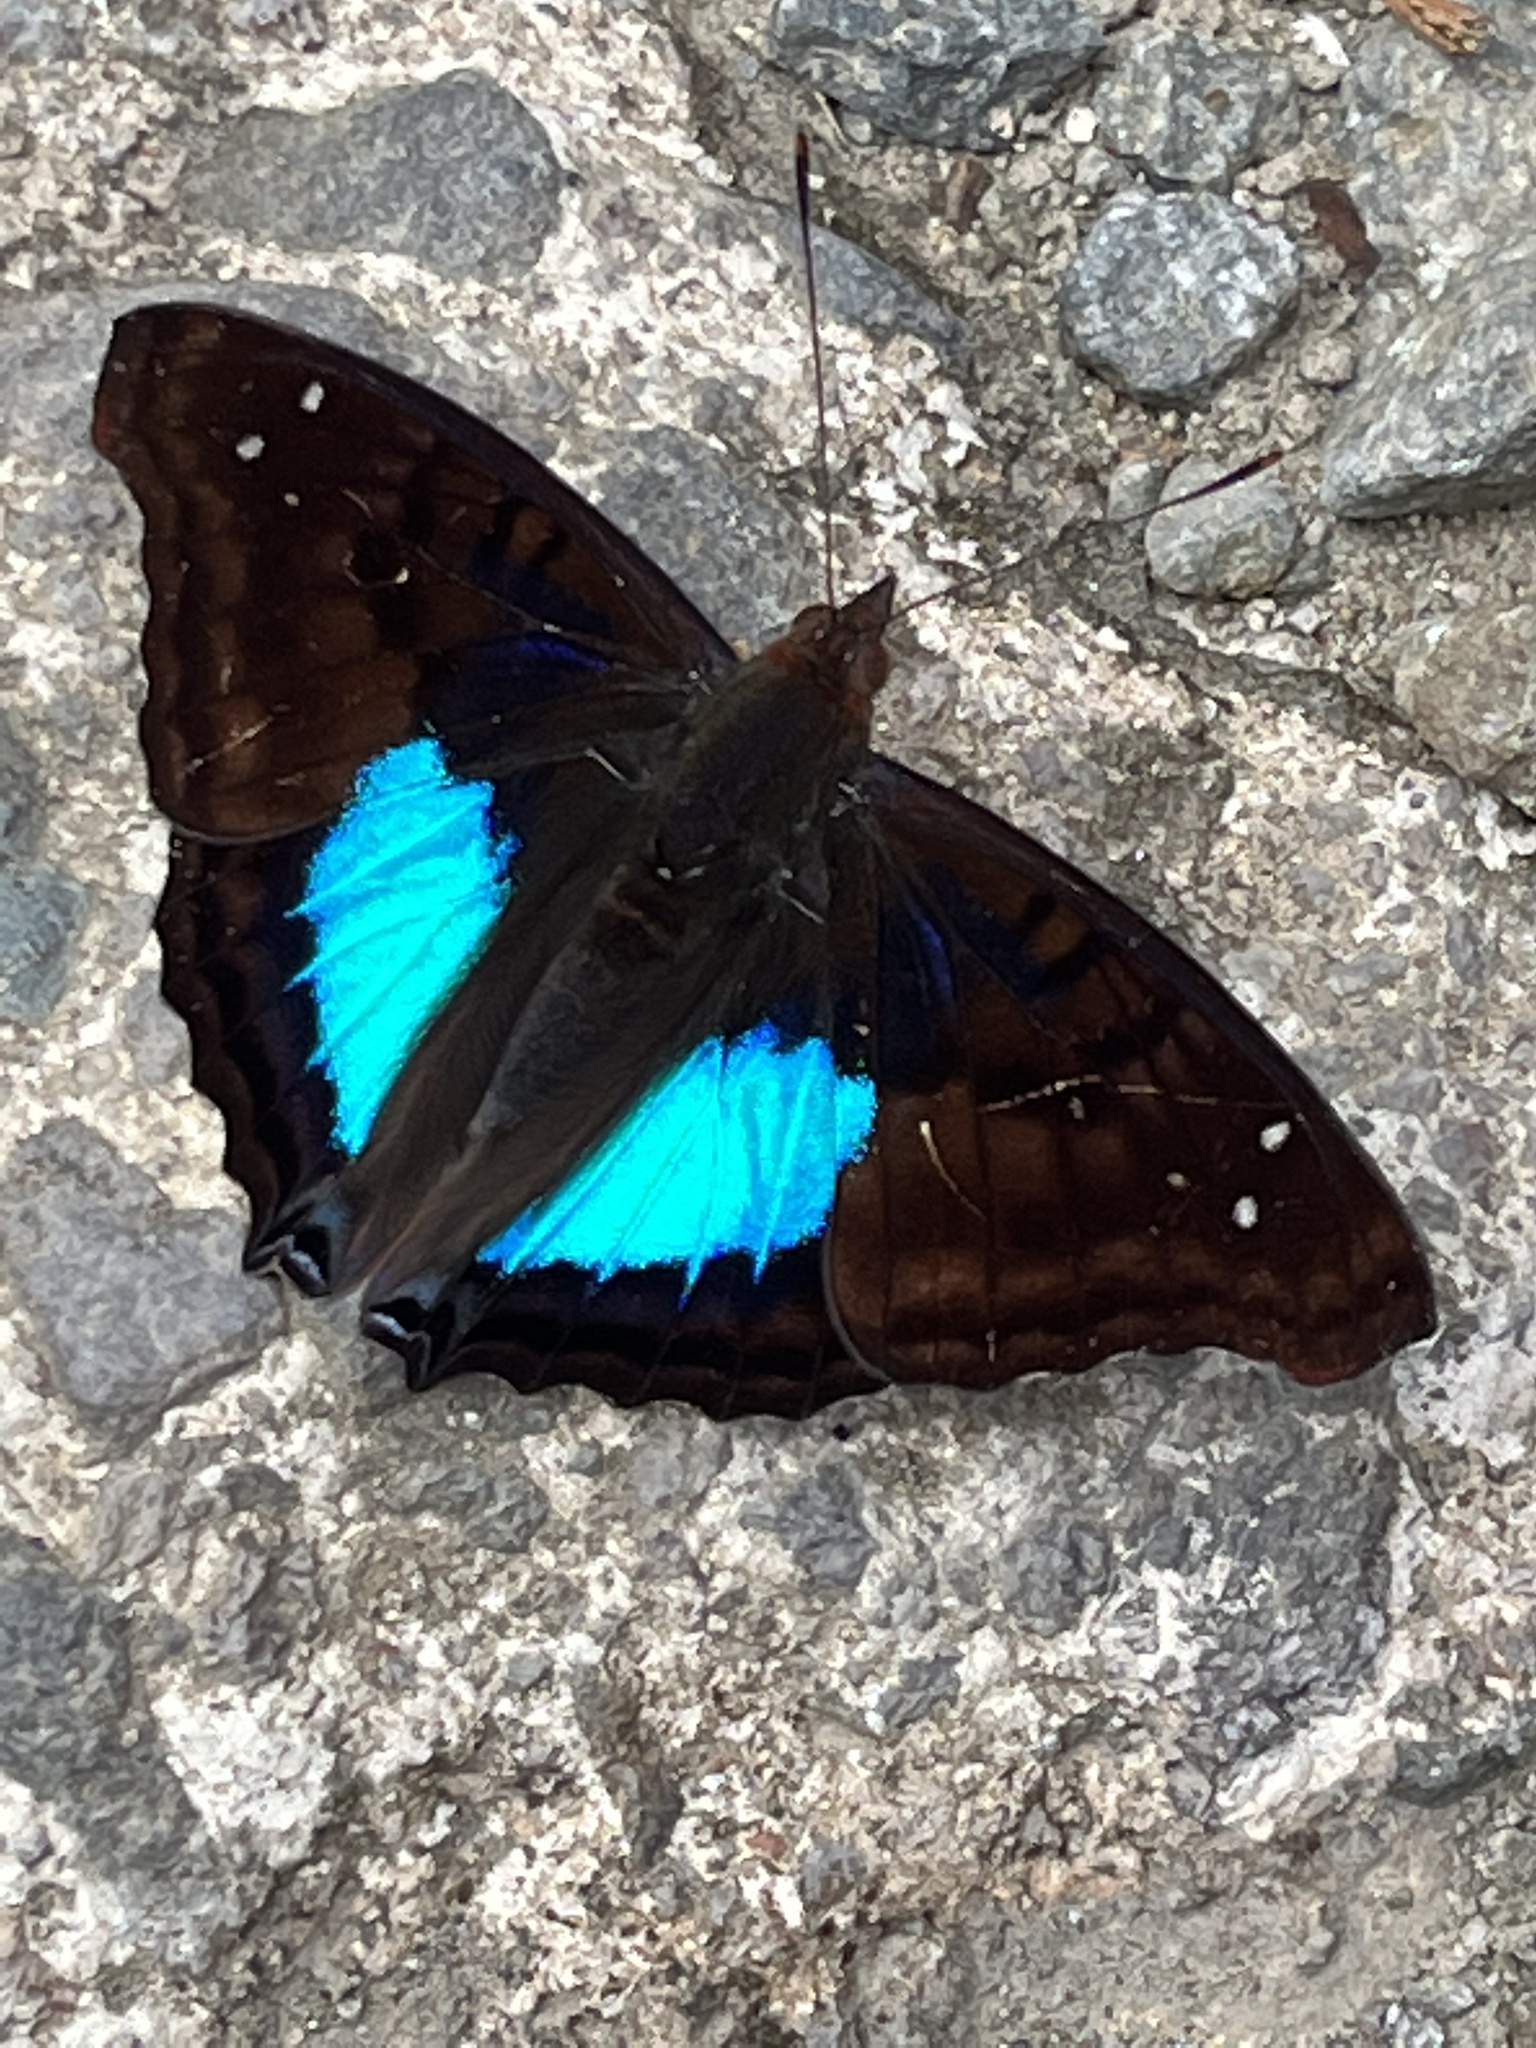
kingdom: Animalia
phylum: Arthropoda
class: Insecta
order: Lepidoptera
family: Nymphalidae
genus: Doxocopa
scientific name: Doxocopa cyane
